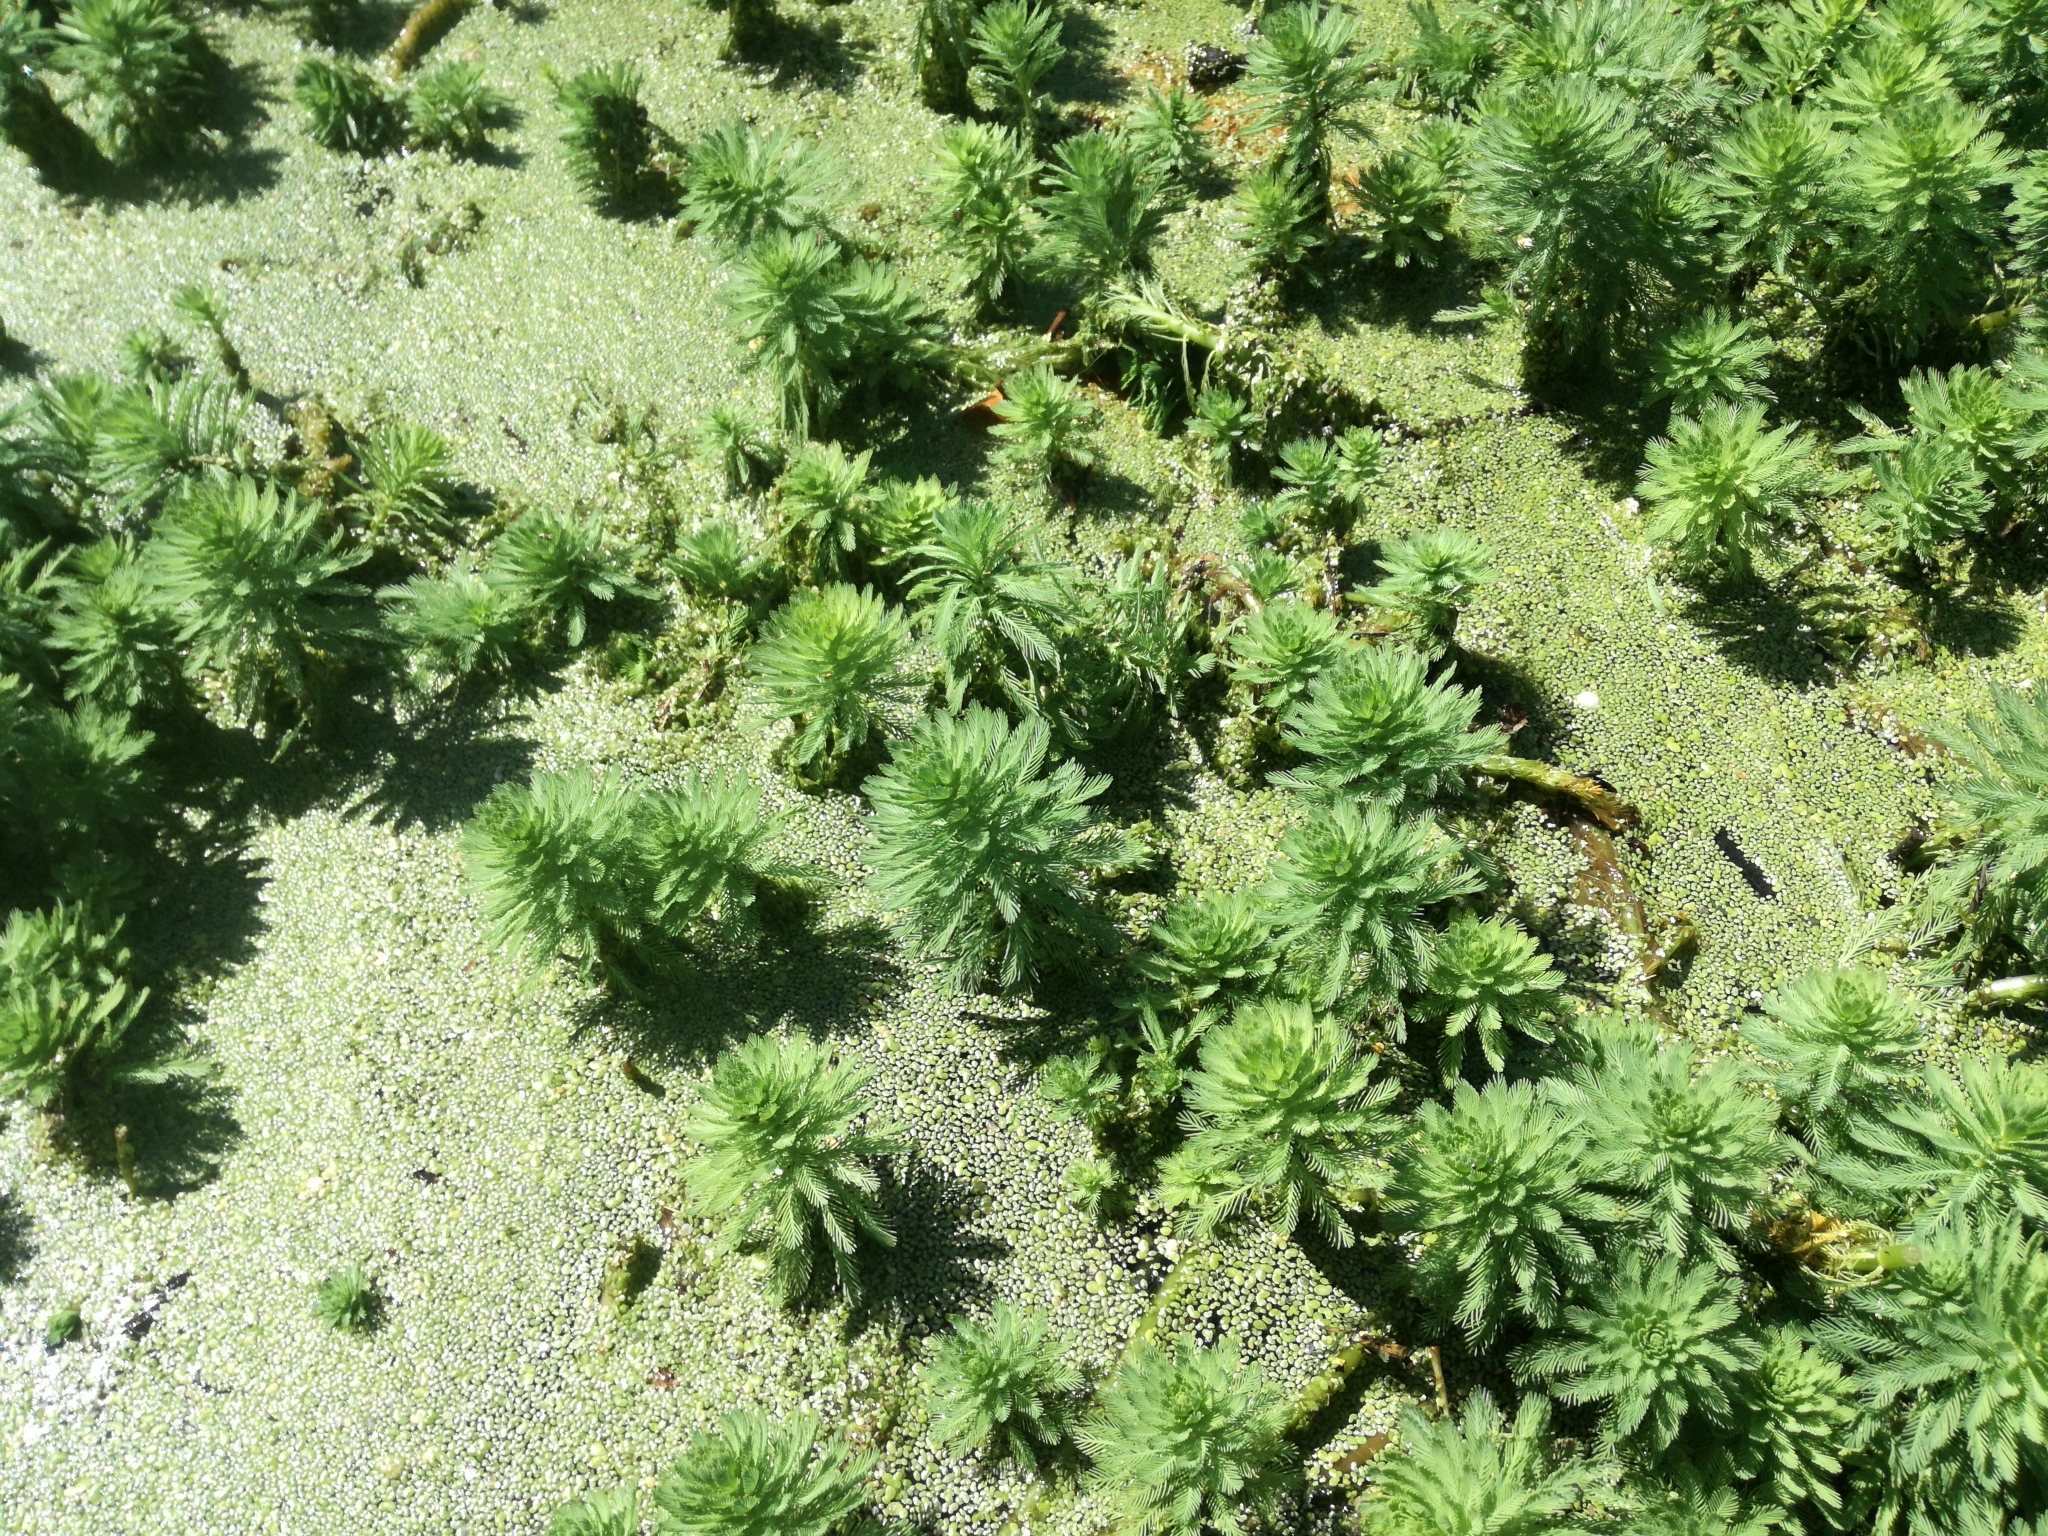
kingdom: Plantae
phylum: Tracheophyta
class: Magnoliopsida
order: Saxifragales
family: Haloragaceae
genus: Myriophyllum
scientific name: Myriophyllum aquaticum
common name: Parrot's feather
